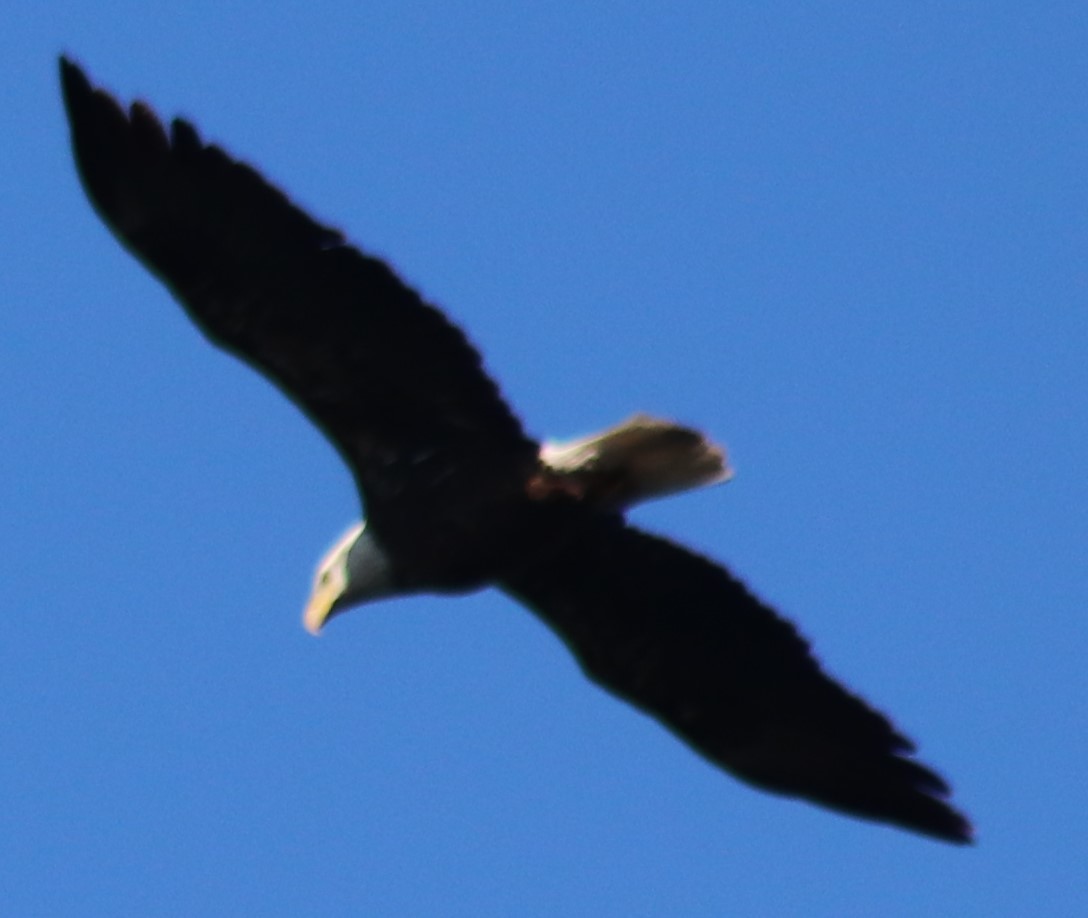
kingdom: Animalia
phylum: Chordata
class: Aves
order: Accipitriformes
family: Accipitridae
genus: Haliaeetus
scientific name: Haliaeetus leucocephalus
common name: Bald eagle
